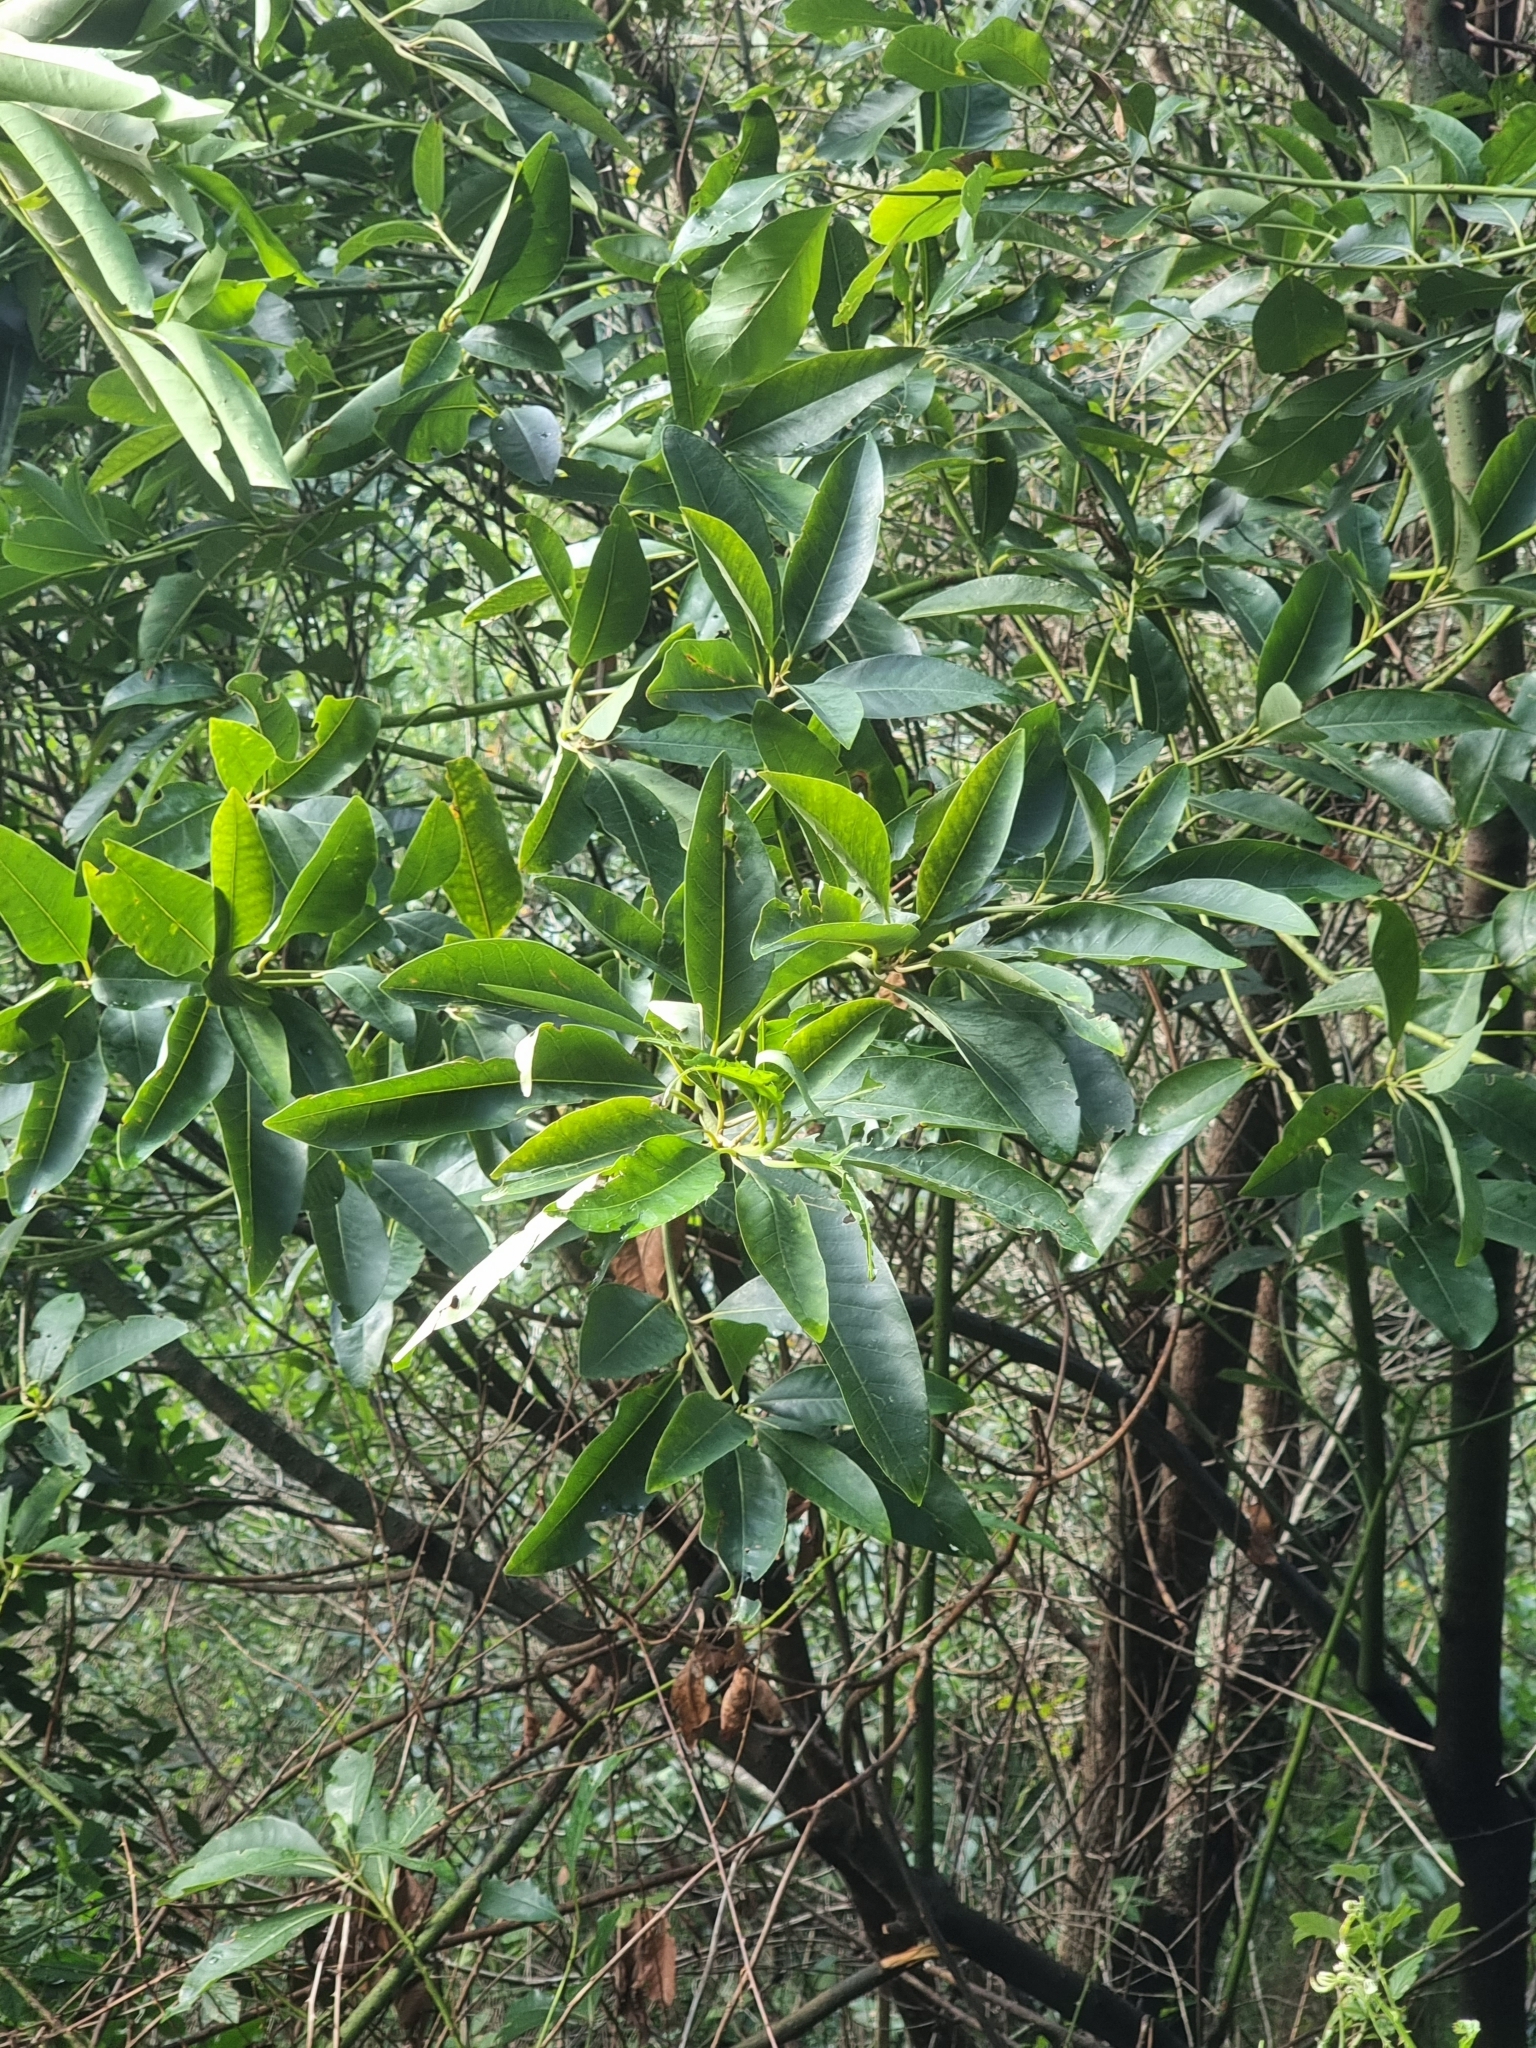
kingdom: Plantae
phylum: Tracheophyta
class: Magnoliopsida
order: Laurales
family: Lauraceae
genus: Persea
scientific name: Persea indica
